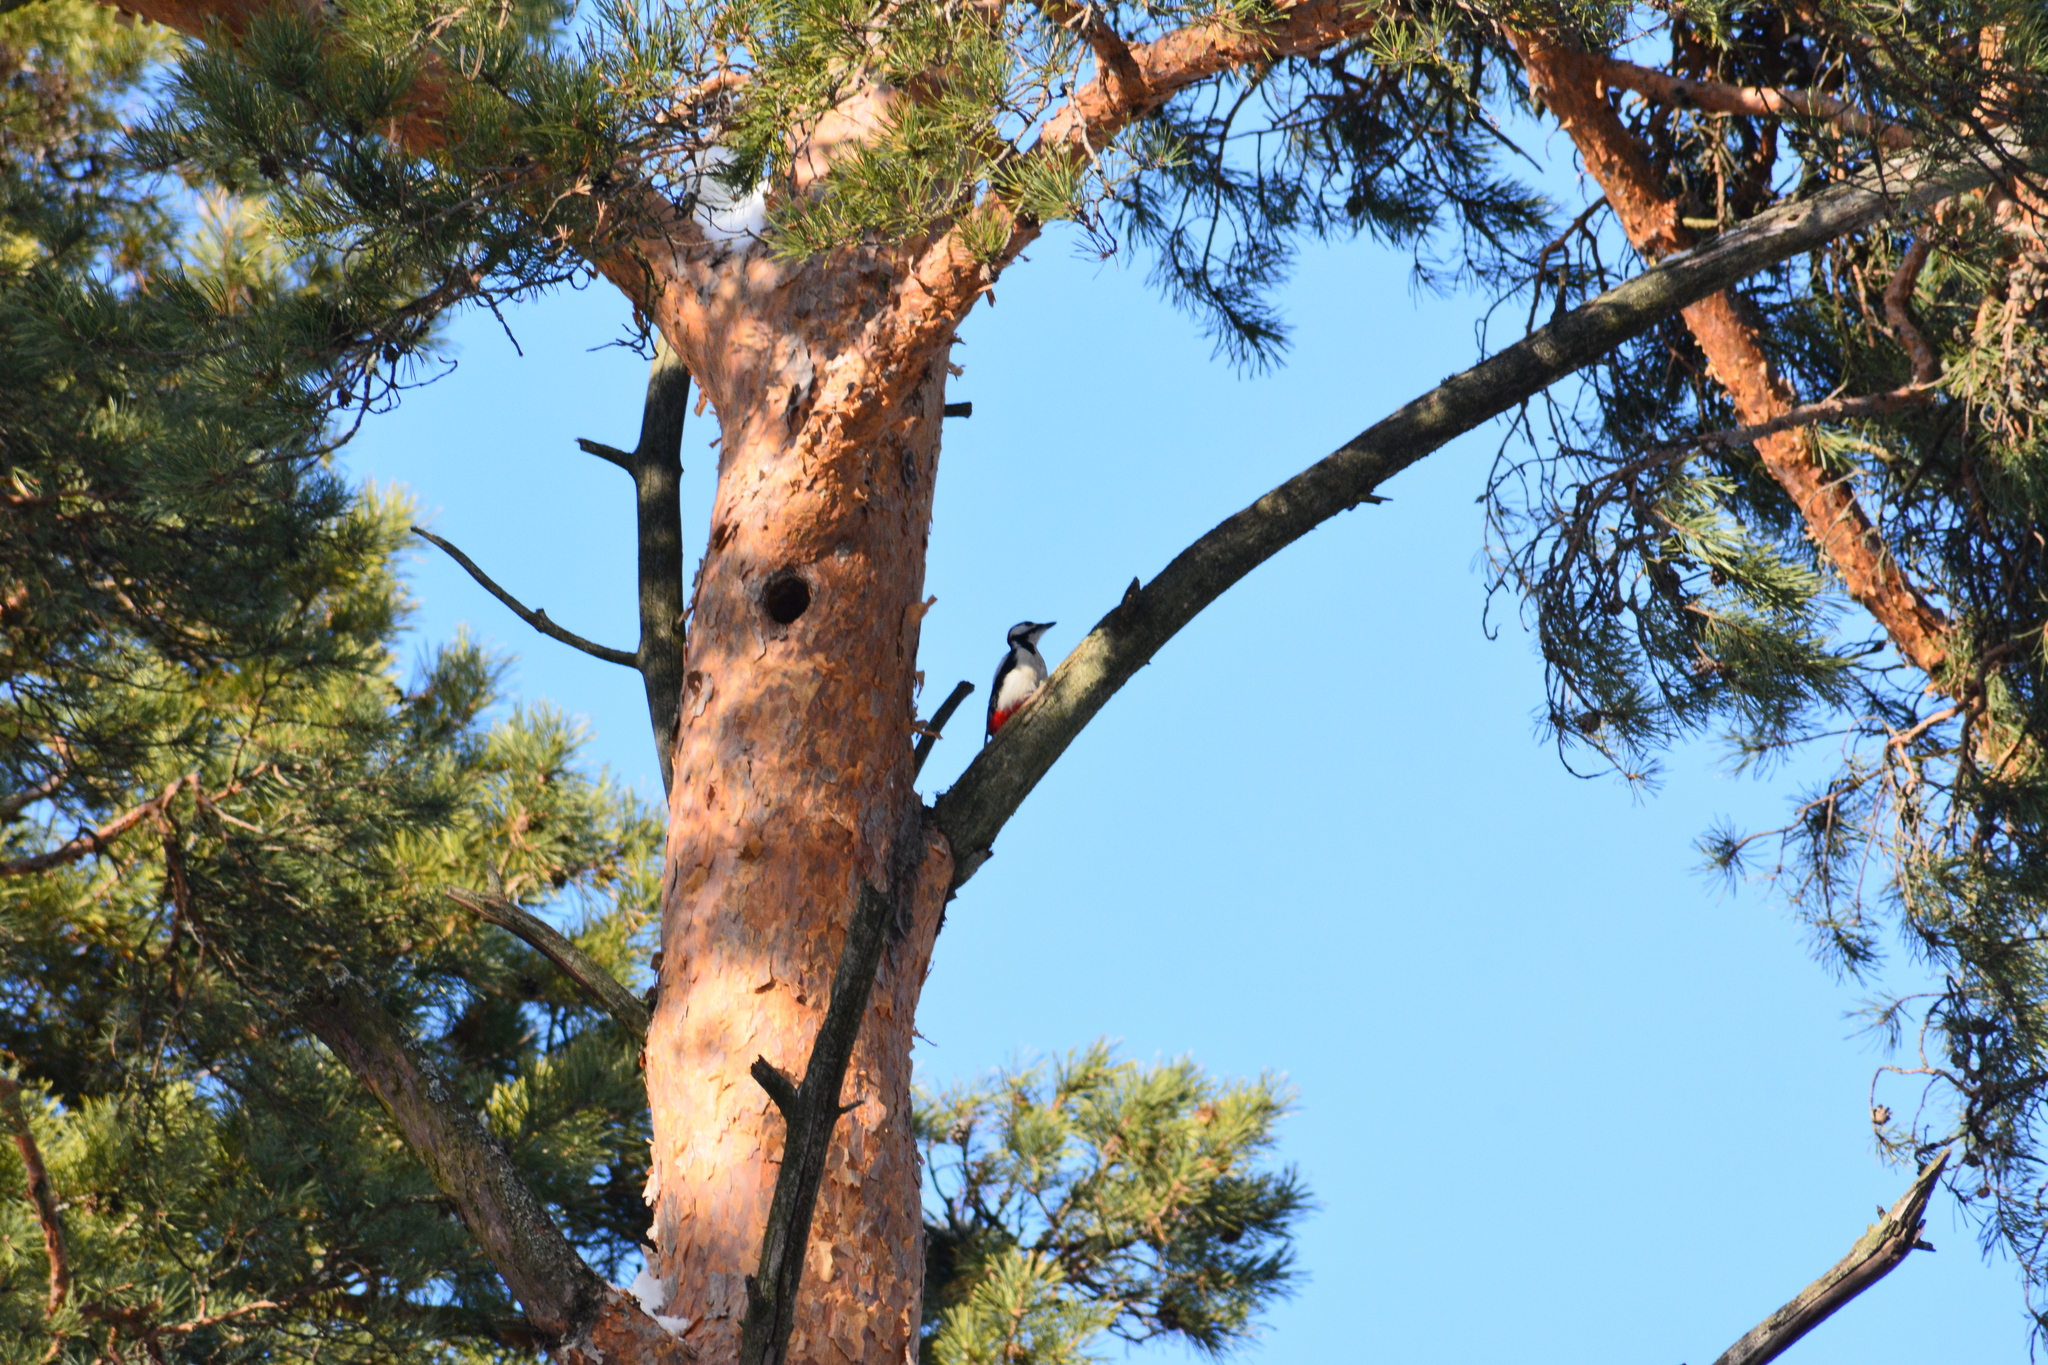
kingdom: Animalia
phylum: Chordata
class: Aves
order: Piciformes
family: Picidae
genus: Dendrocopos
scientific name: Dendrocopos major
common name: Great spotted woodpecker
